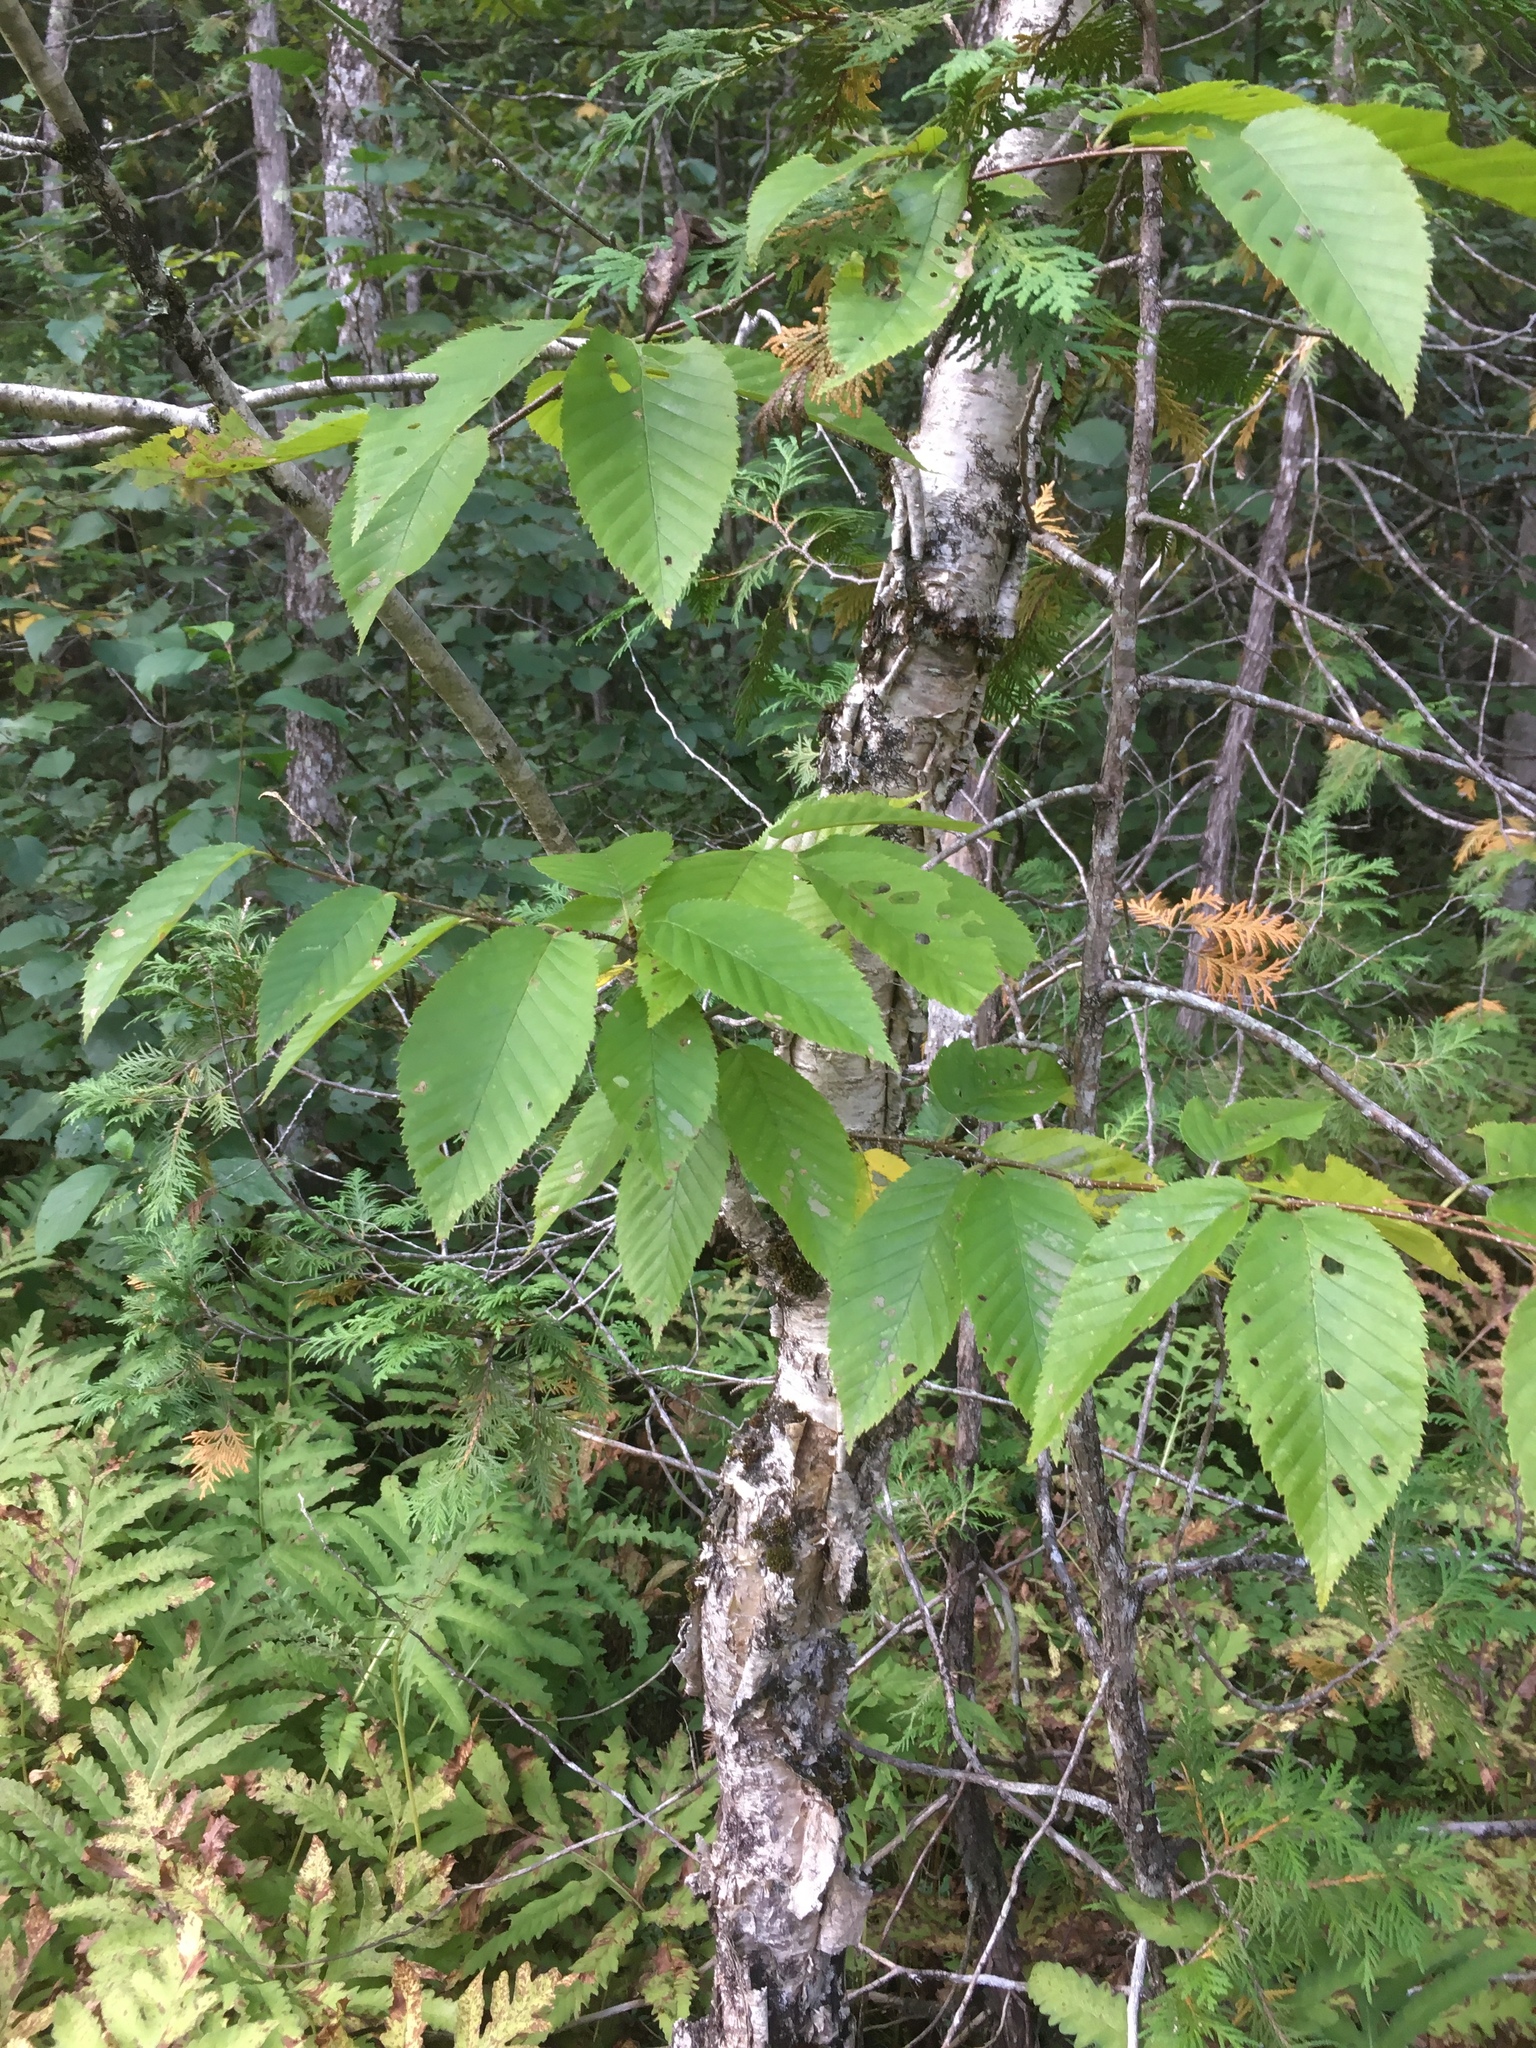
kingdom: Plantae
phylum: Tracheophyta
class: Magnoliopsida
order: Fagales
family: Betulaceae
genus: Betula
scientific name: Betula alleghaniensis
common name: Yellow birch
